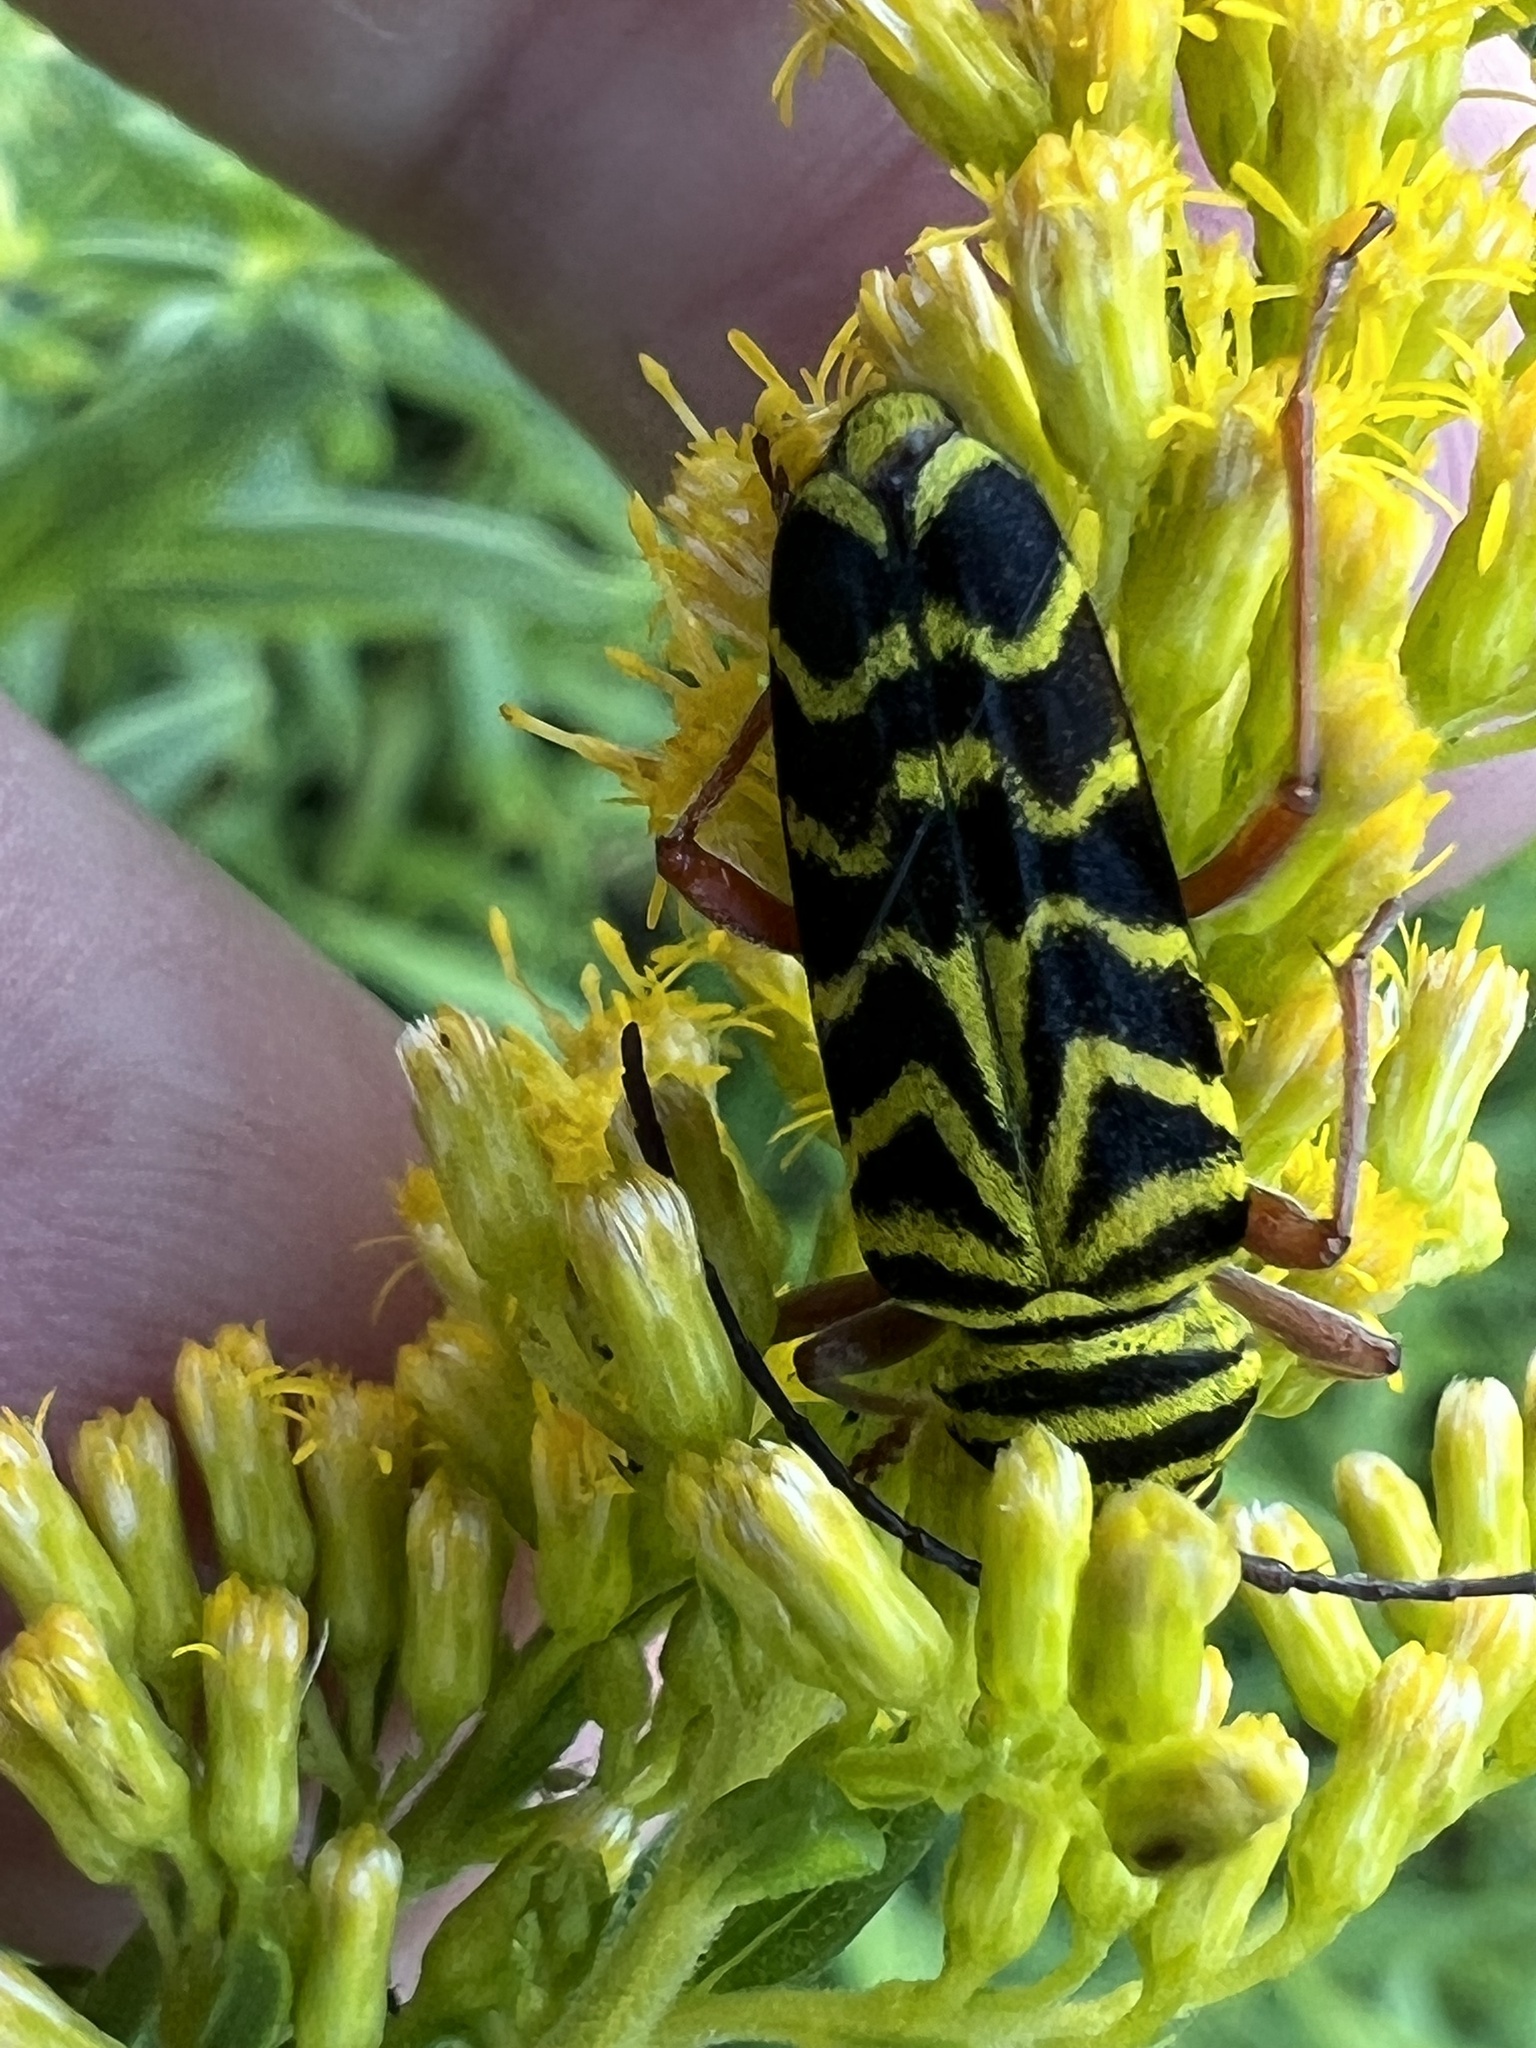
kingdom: Animalia
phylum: Arthropoda
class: Insecta
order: Coleoptera
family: Cerambycidae
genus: Megacyllene
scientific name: Megacyllene robiniae
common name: Locust borer
